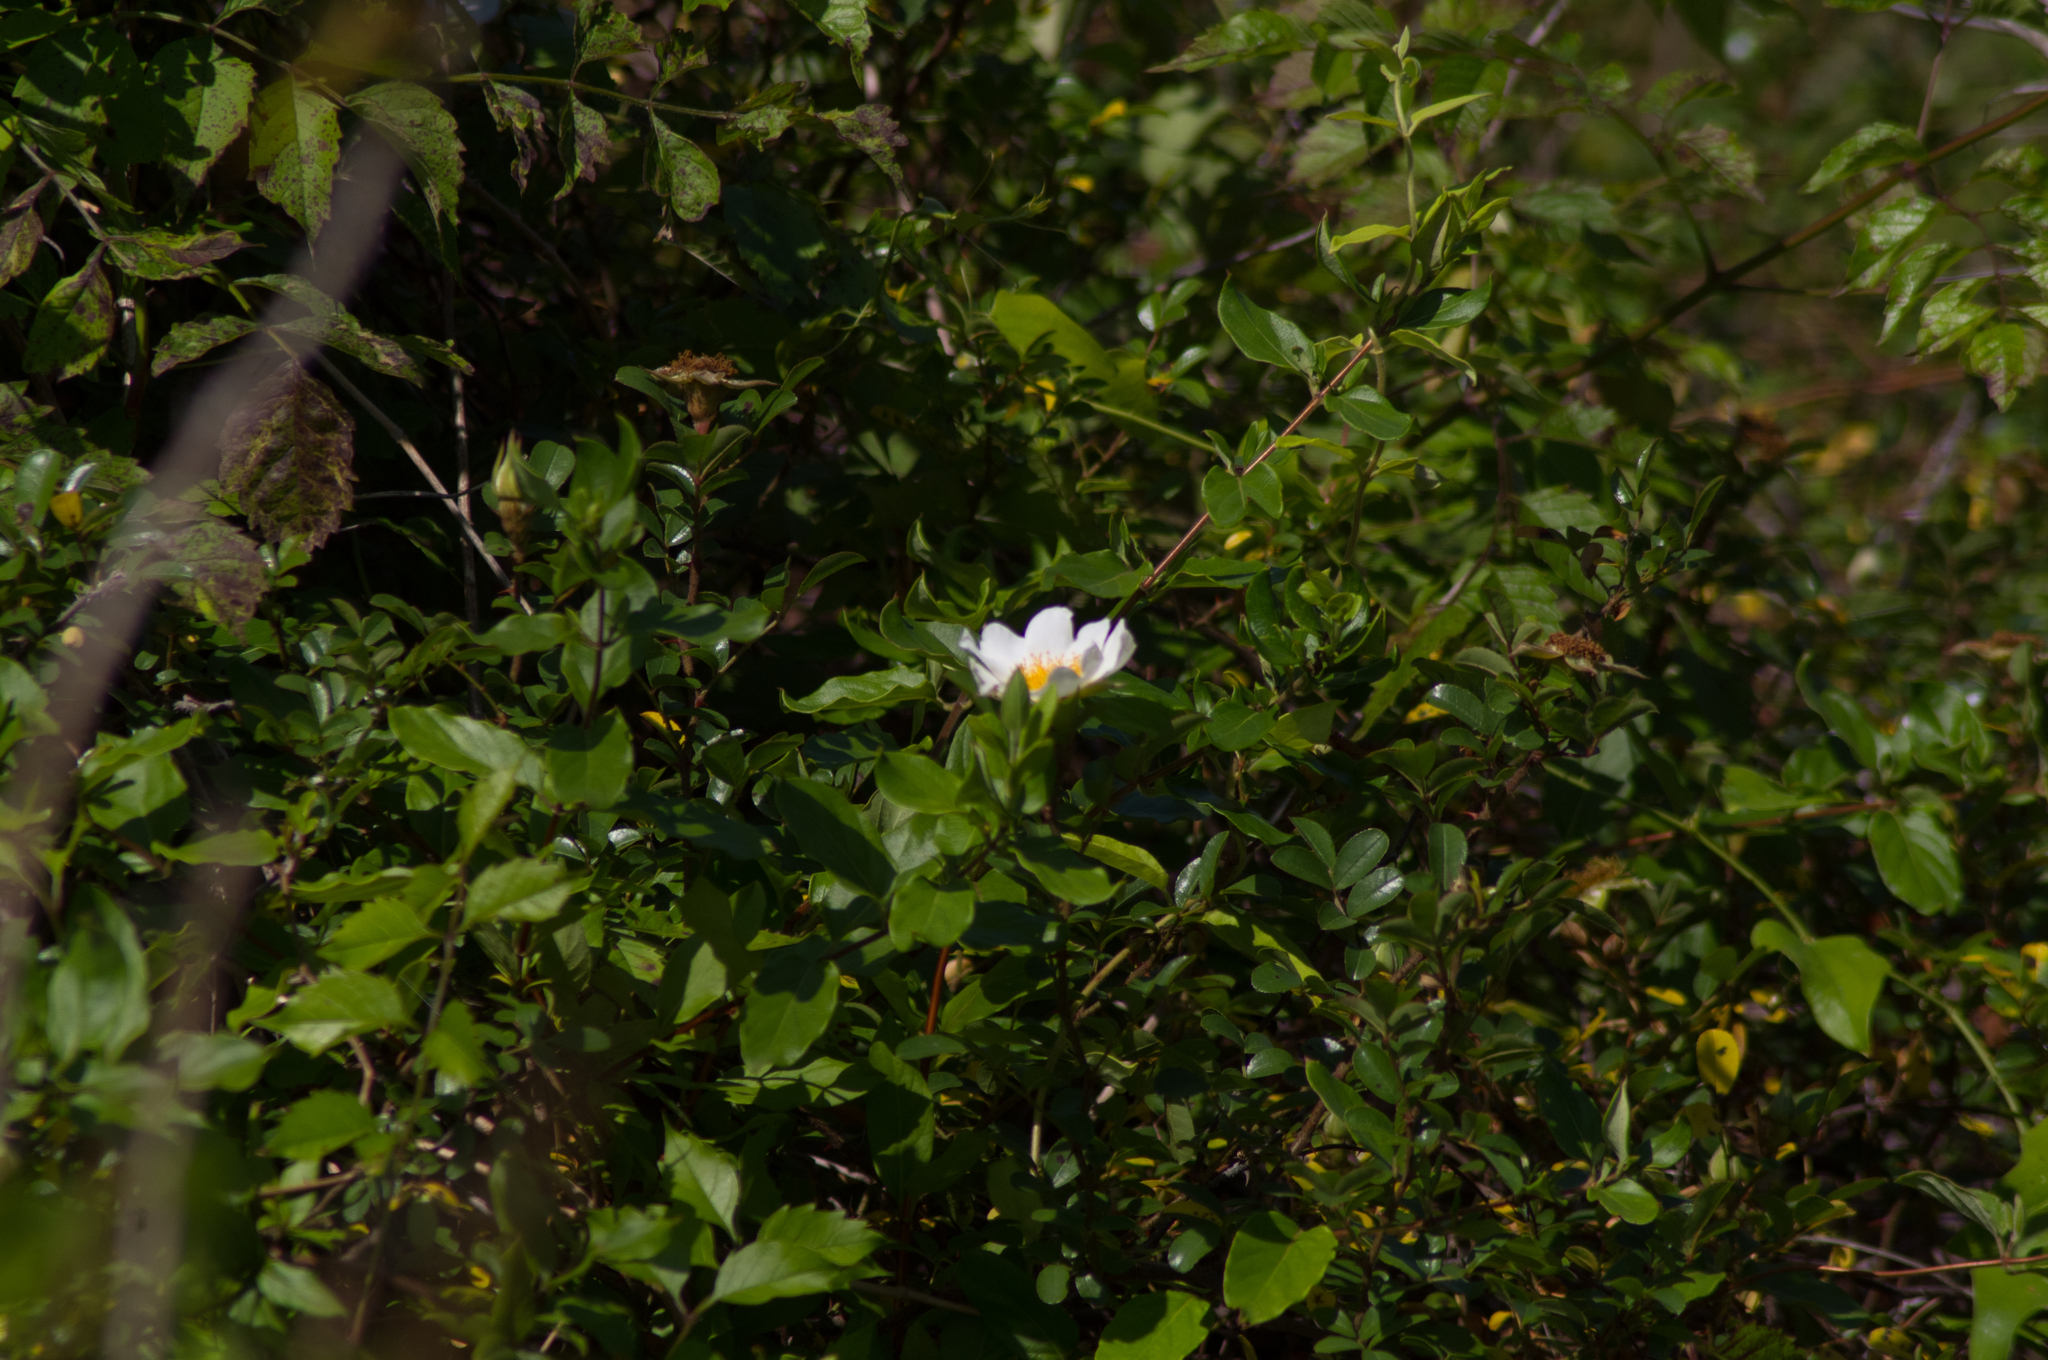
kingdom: Plantae
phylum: Tracheophyta
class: Magnoliopsida
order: Rosales
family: Rosaceae
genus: Rosa
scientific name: Rosa bracteata
